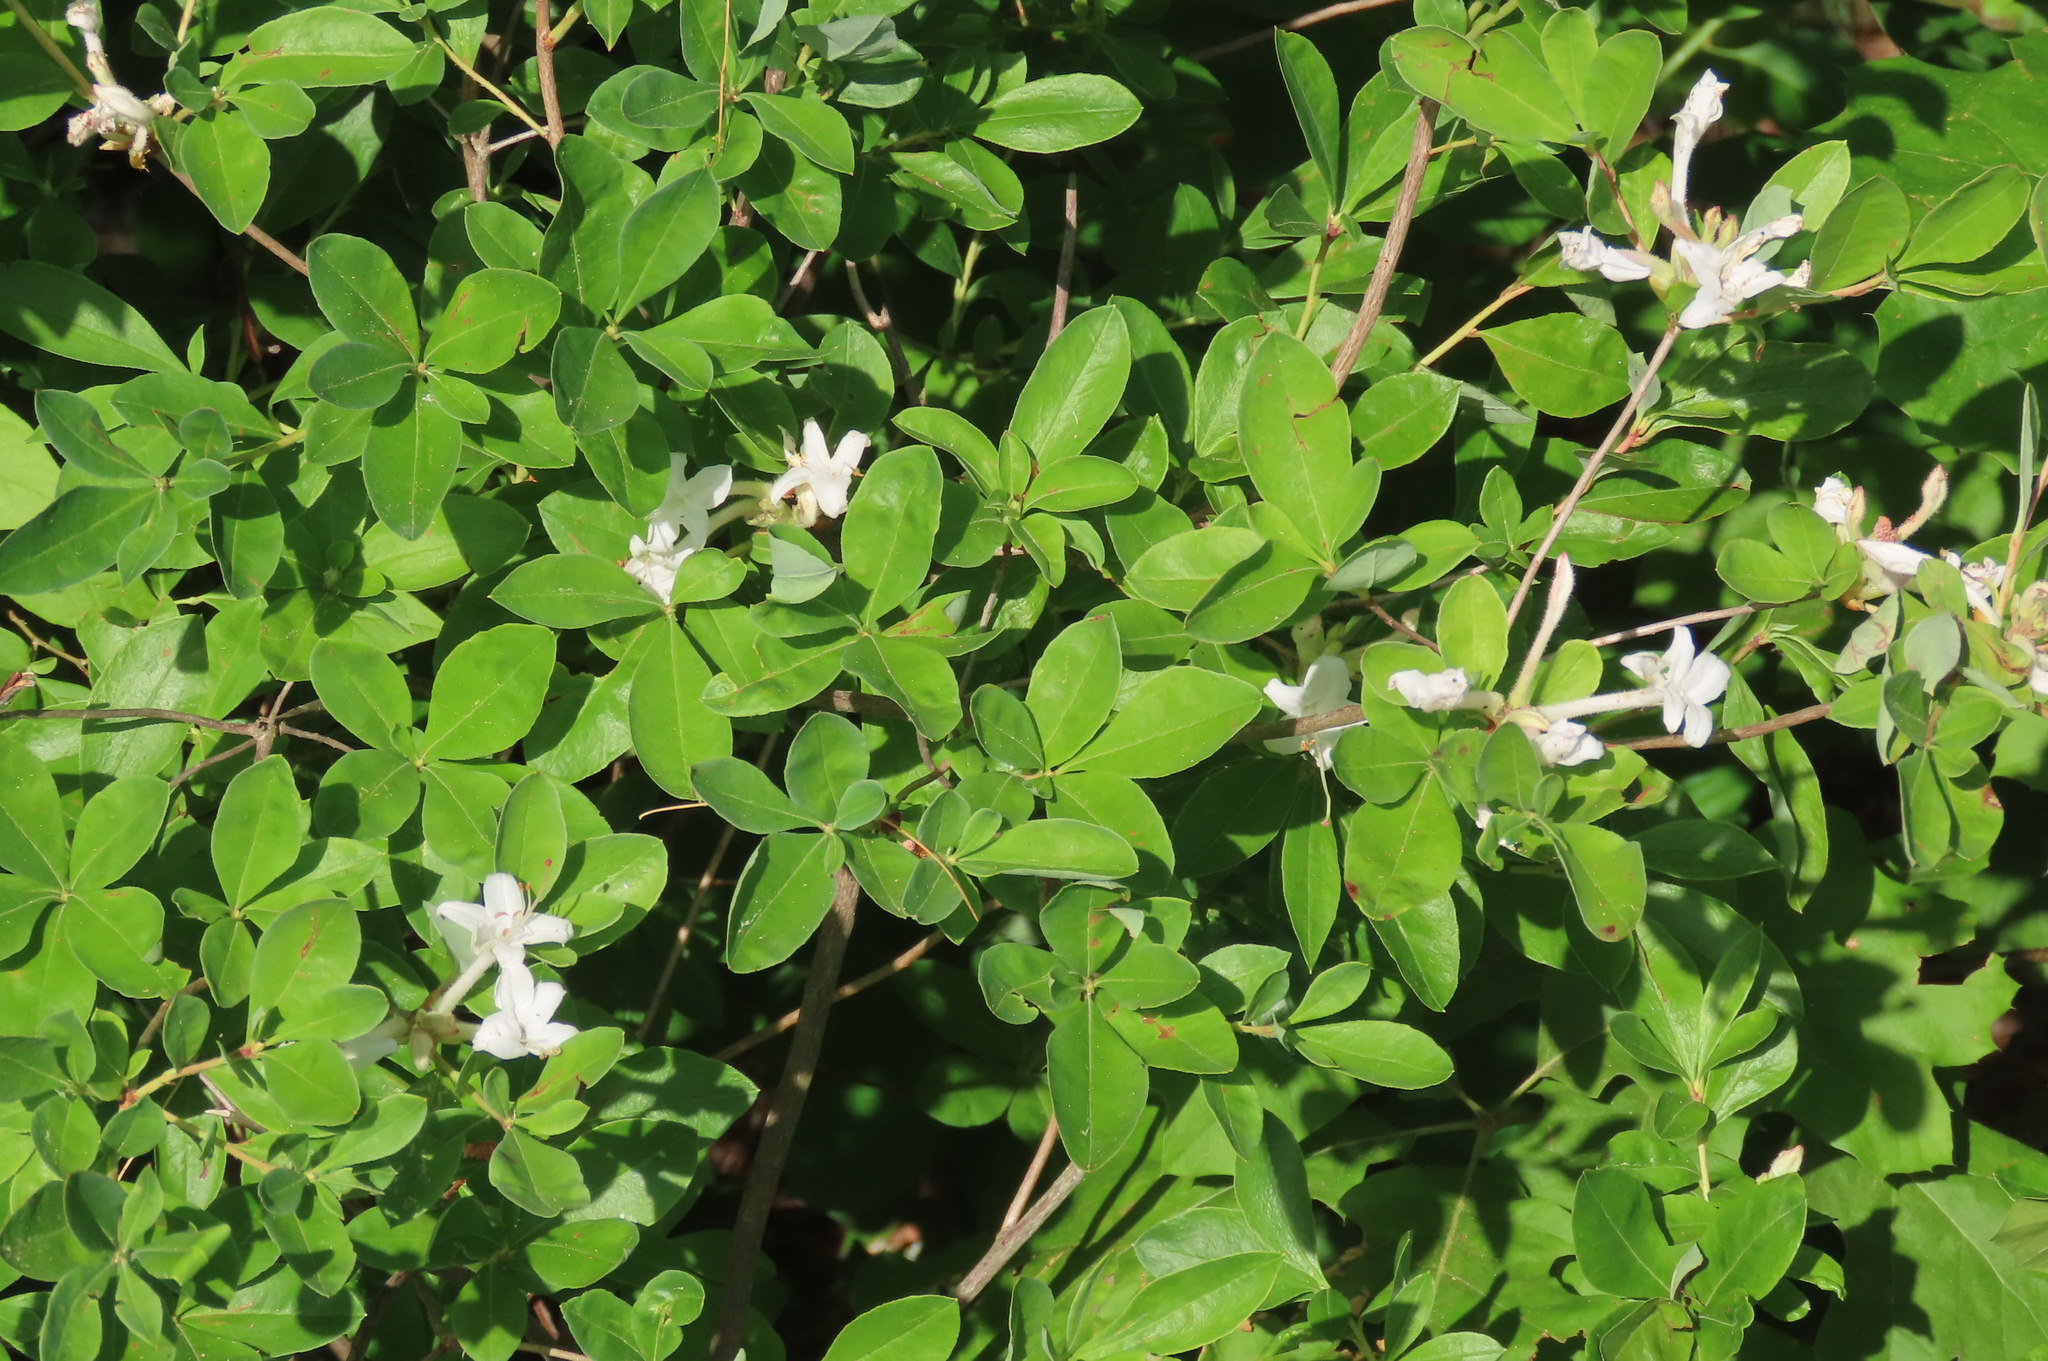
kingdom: Plantae
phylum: Tracheophyta
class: Magnoliopsida
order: Ericales
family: Ericaceae
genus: Rhododendron
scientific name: Rhododendron viscosum
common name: Clammy azalea
